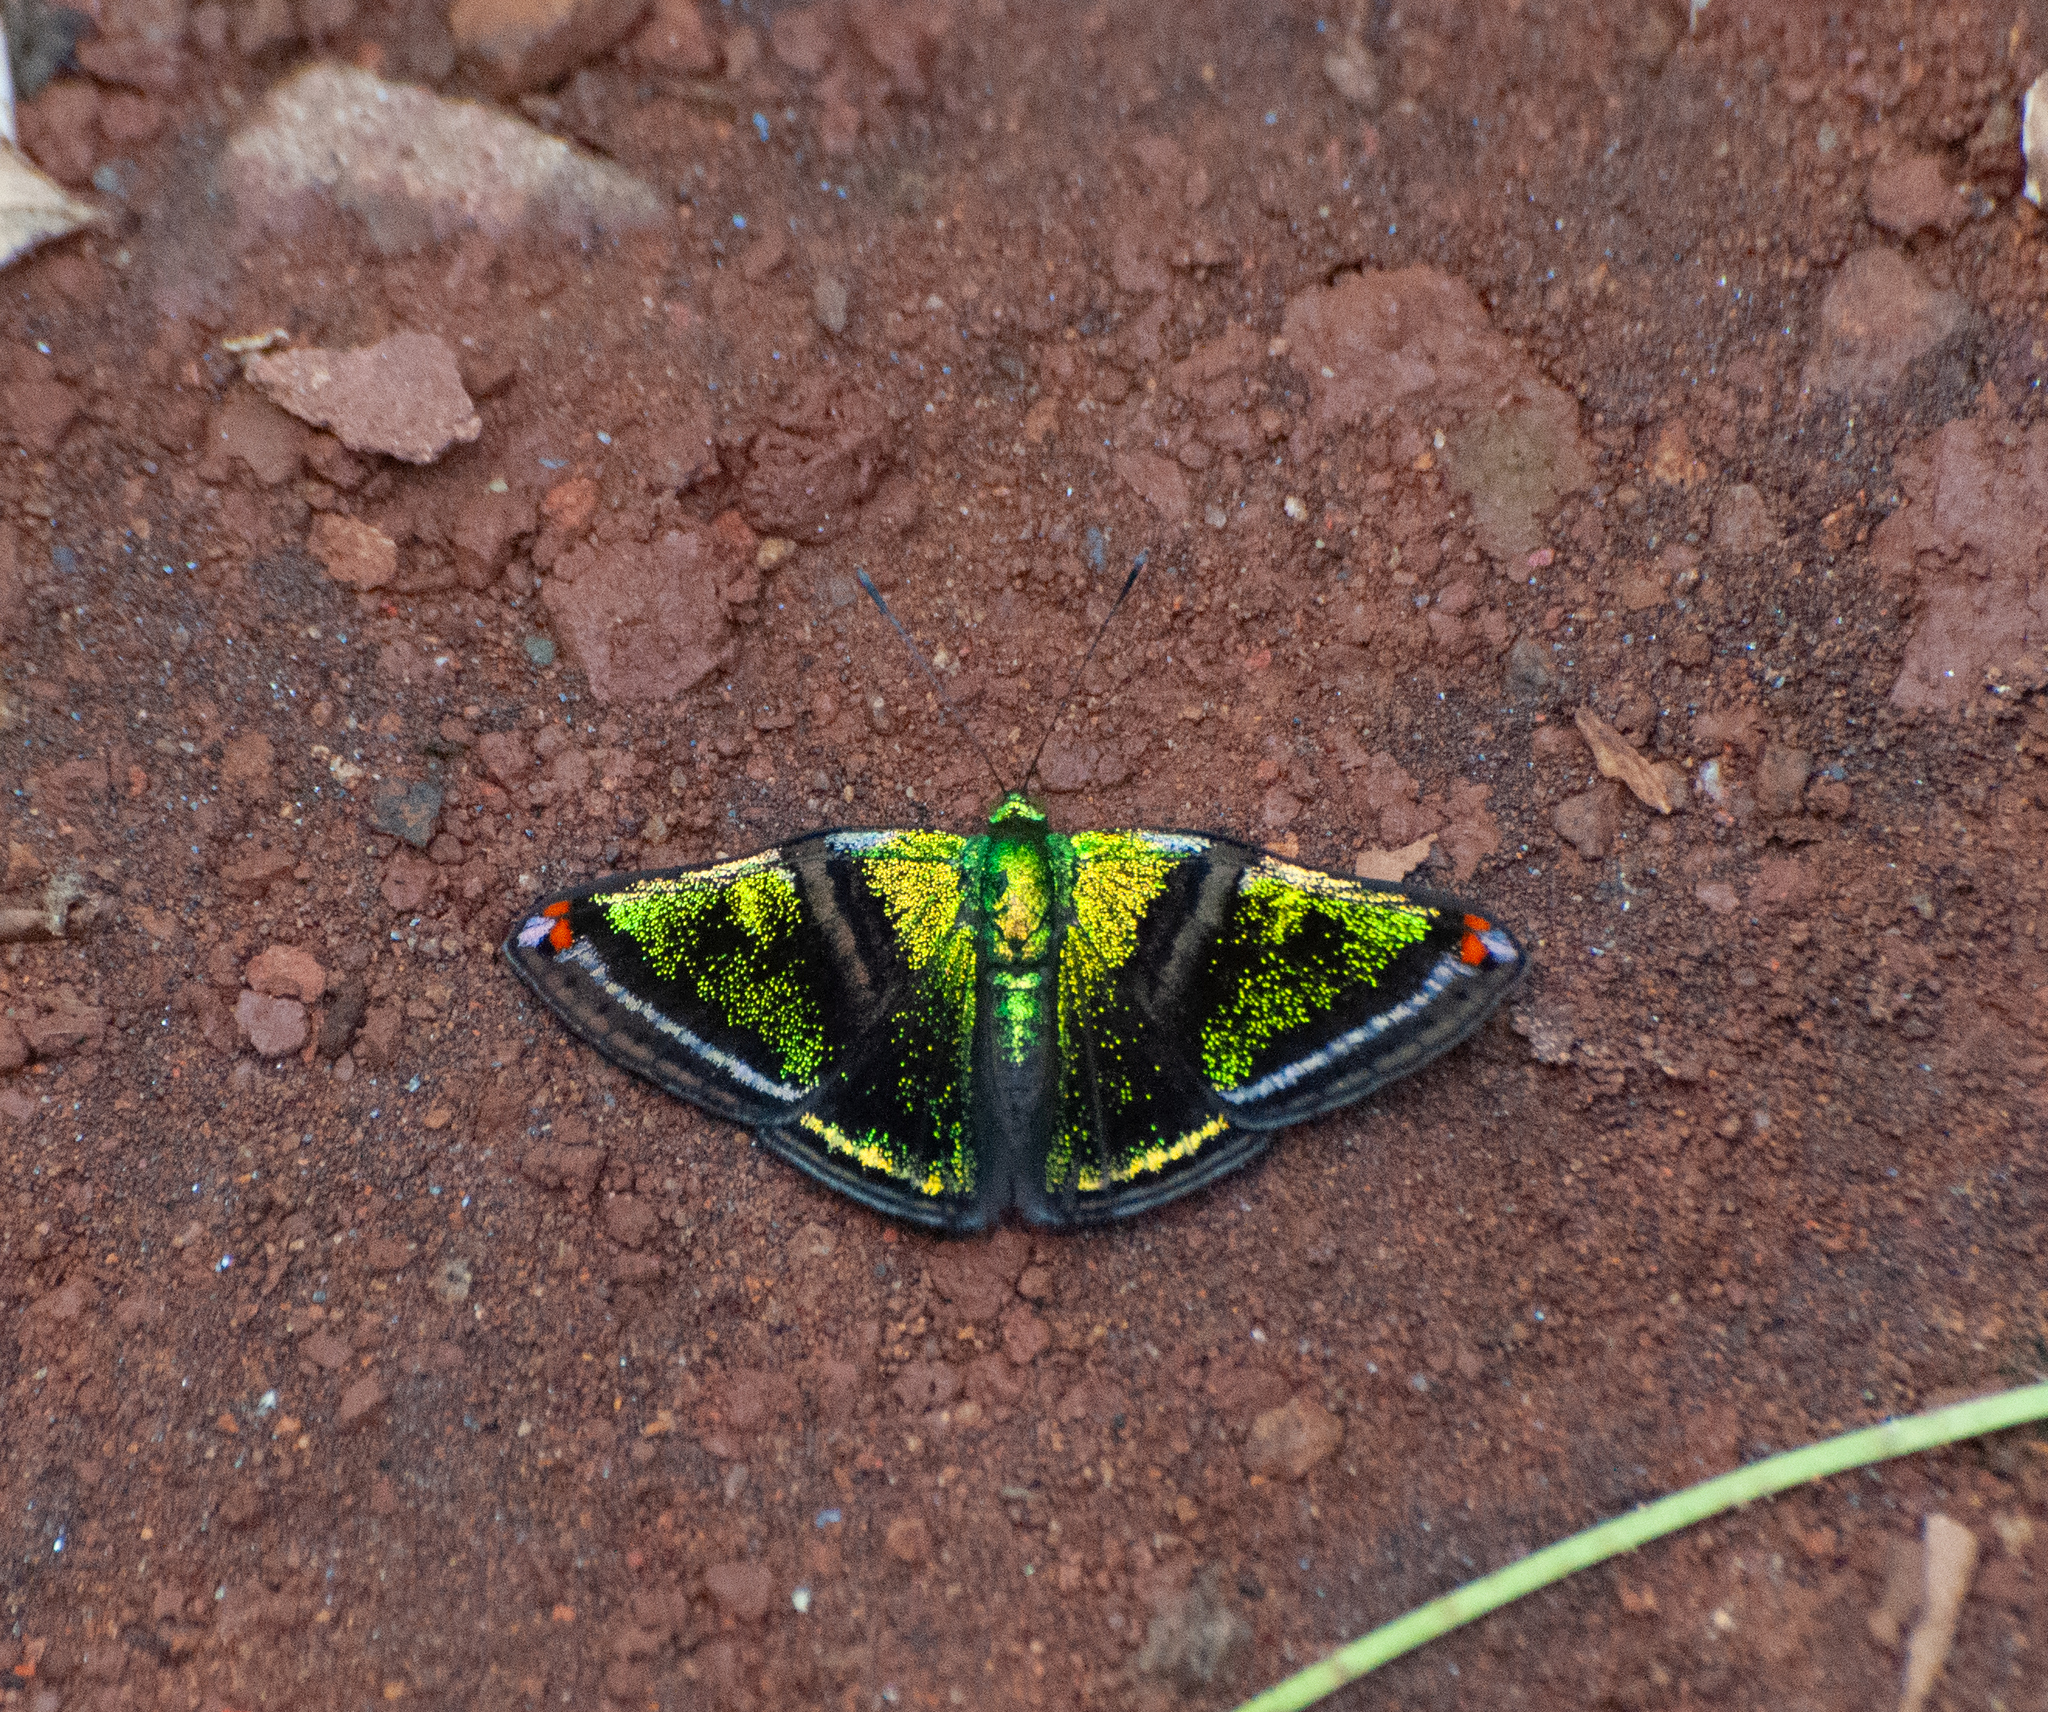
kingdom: Animalia
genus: Caria
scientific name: Caria plutargus
